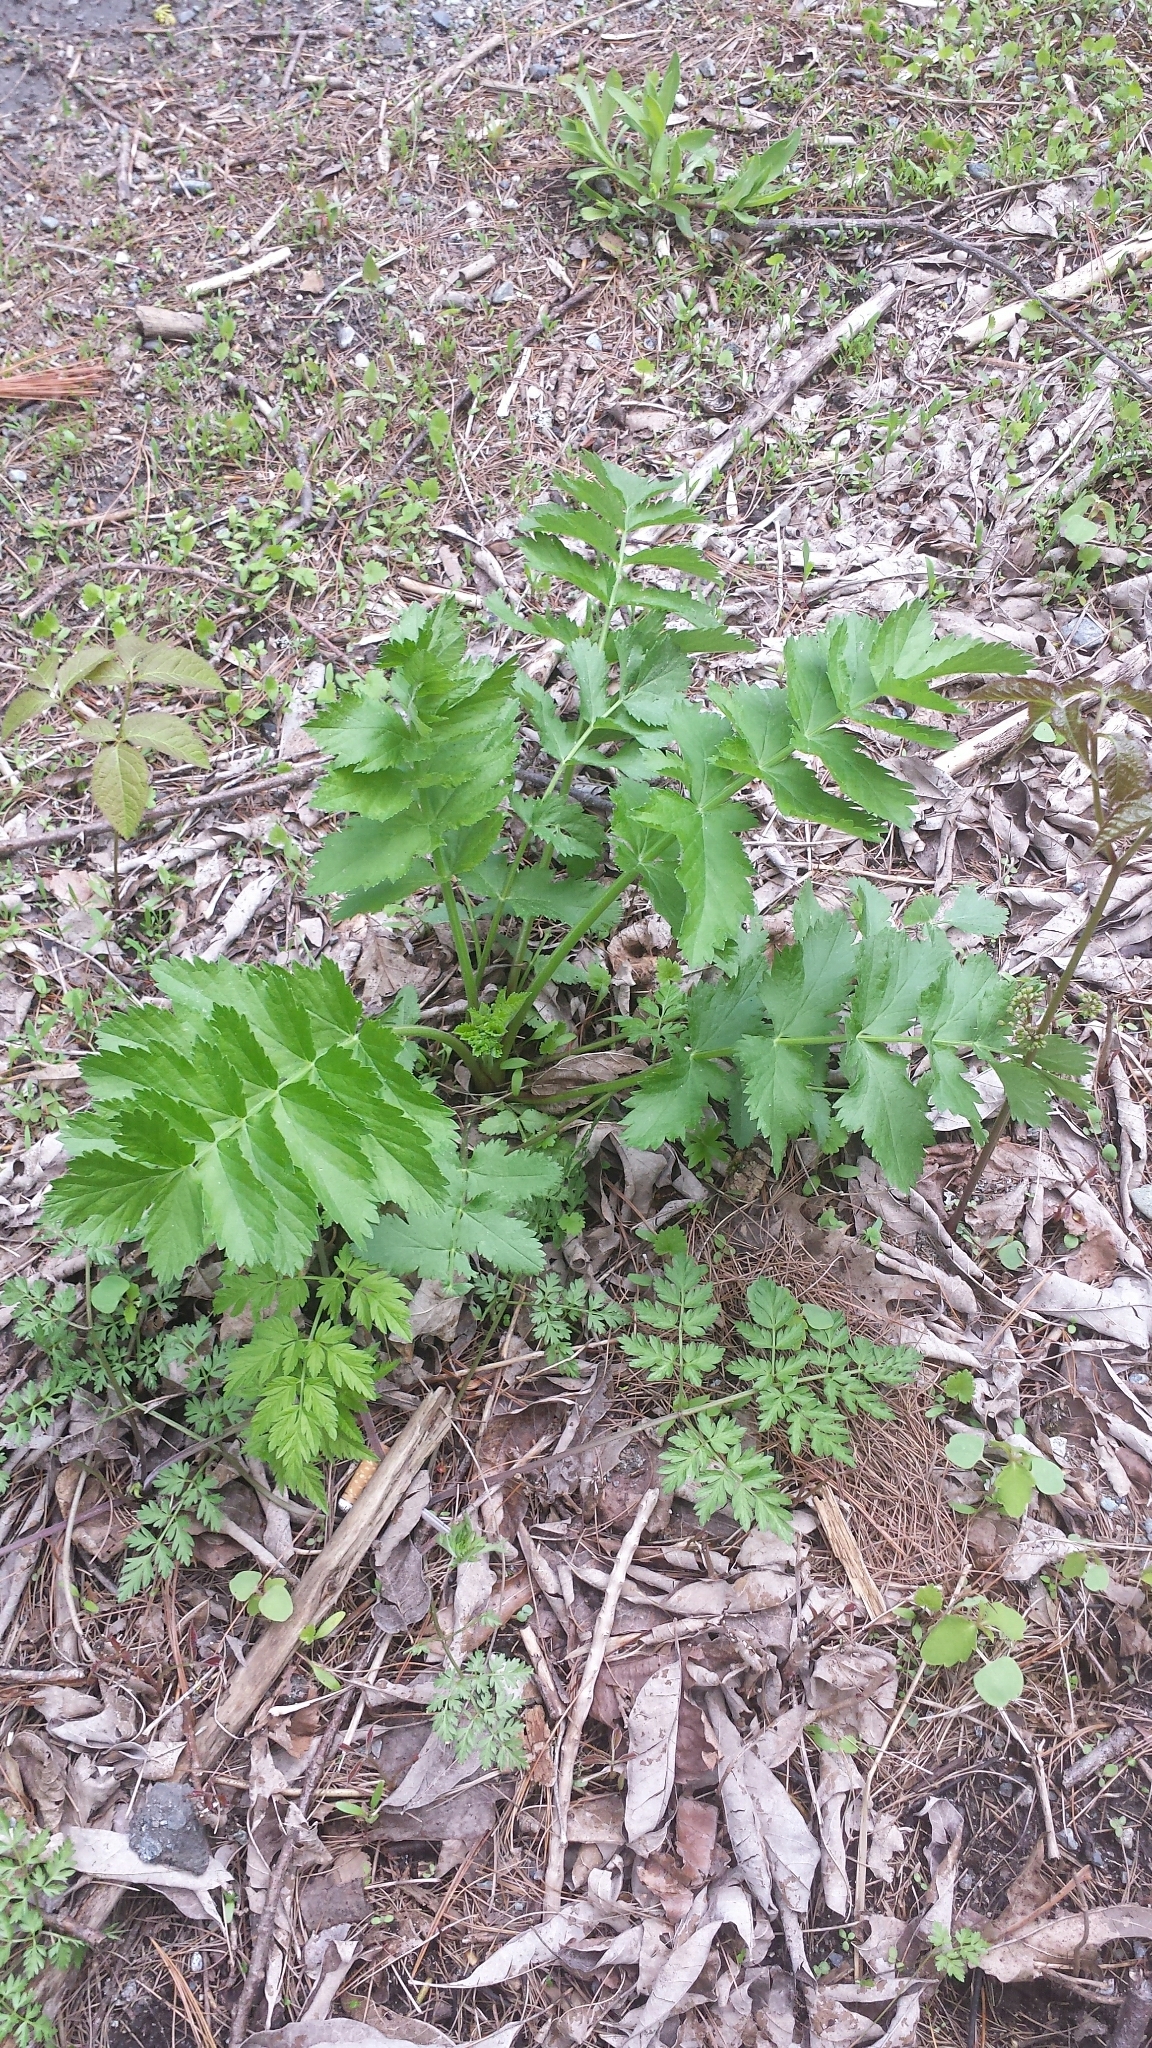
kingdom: Plantae
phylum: Tracheophyta
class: Magnoliopsida
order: Apiales
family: Apiaceae
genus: Pastinaca
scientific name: Pastinaca sativa
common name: Wild parsnip
